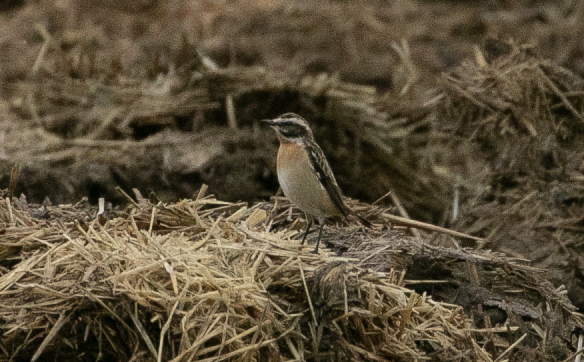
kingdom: Animalia
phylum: Chordata
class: Aves
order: Passeriformes
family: Muscicapidae
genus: Saxicola
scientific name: Saxicola rubetra
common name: Whinchat
